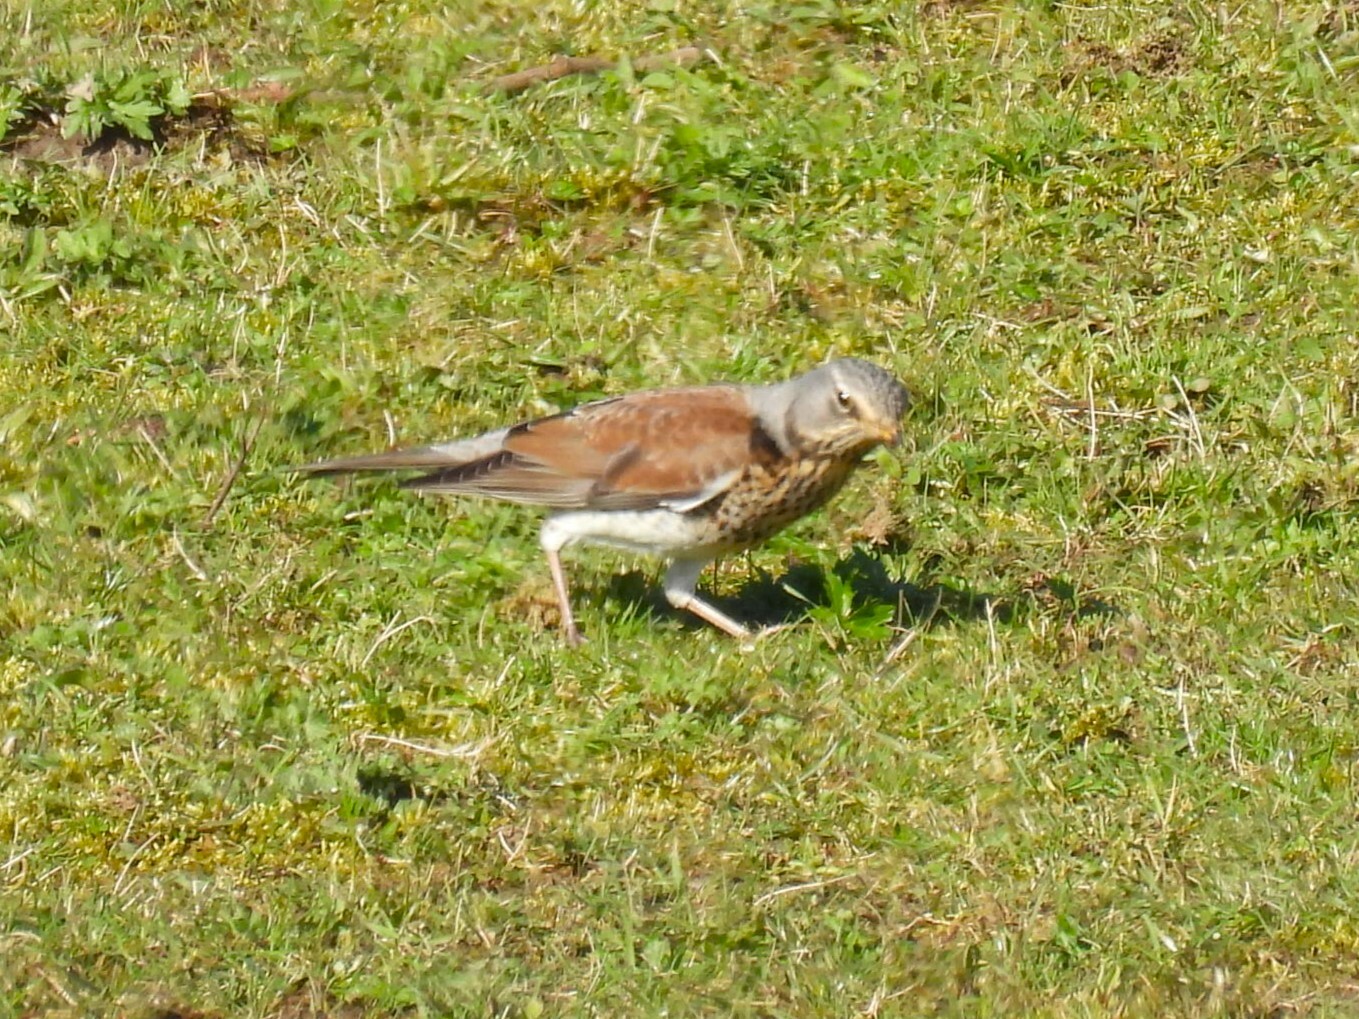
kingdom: Animalia
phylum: Chordata
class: Aves
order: Passeriformes
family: Turdidae
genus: Turdus
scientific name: Turdus pilaris
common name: Fieldfare
